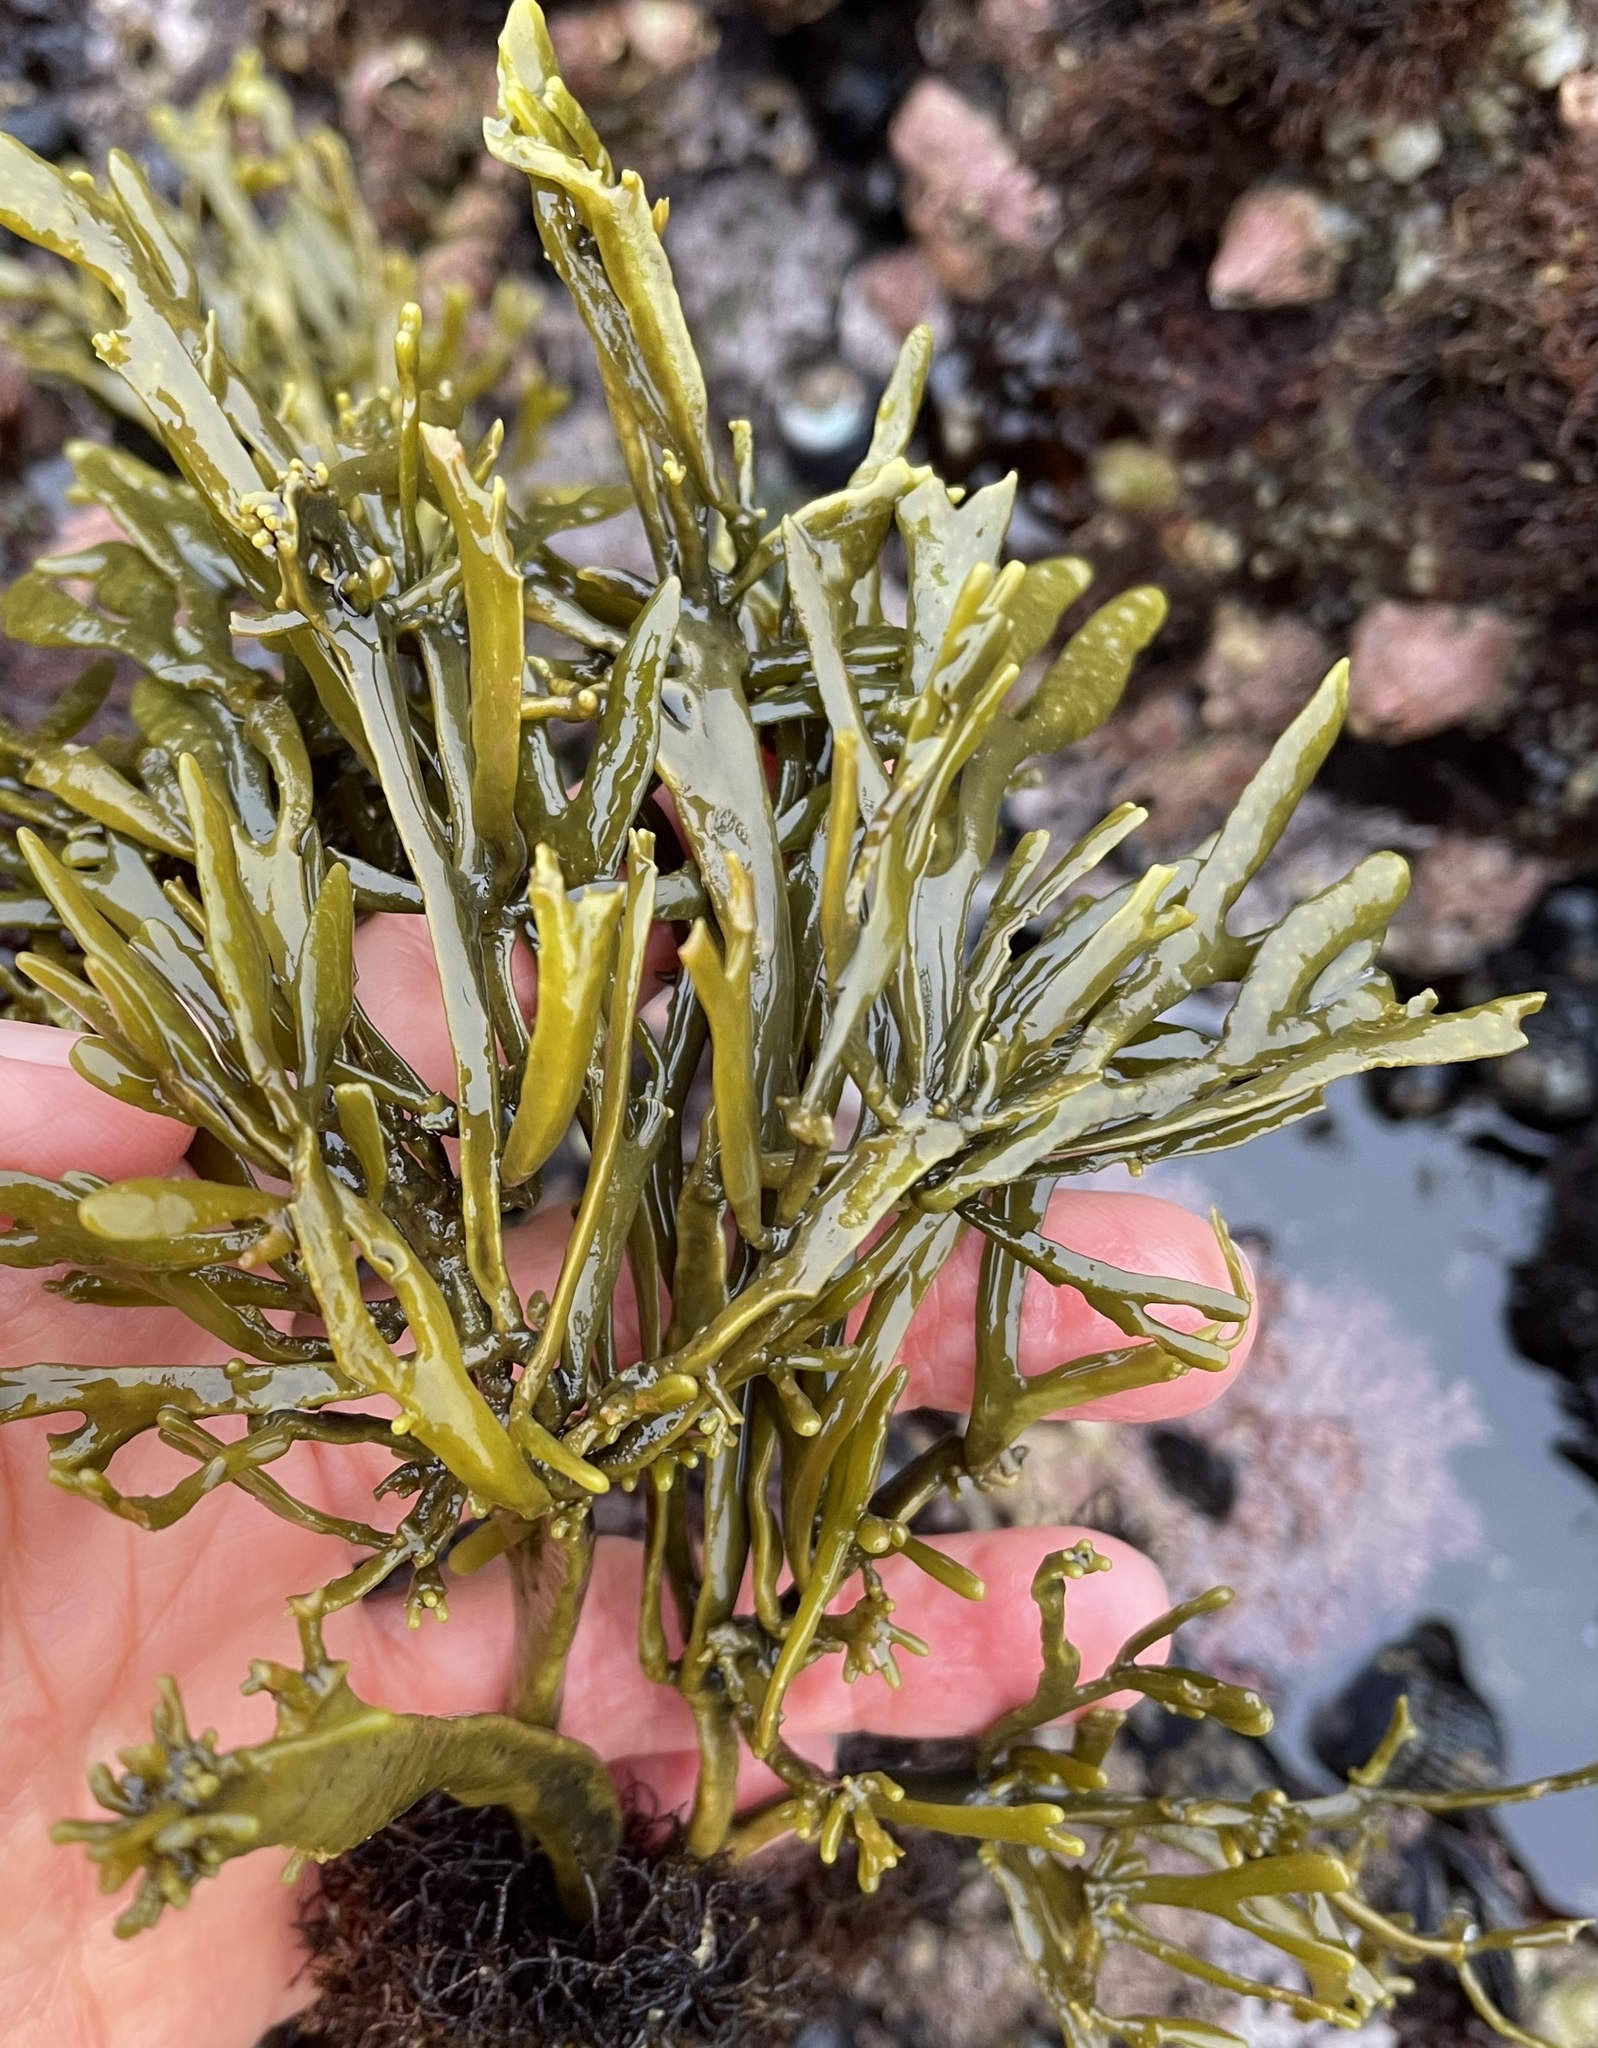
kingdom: Chromista
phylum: Ochrophyta
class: Phaeophyceae
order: Fucales
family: Fucaceae
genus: Silvetia
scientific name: Silvetia
